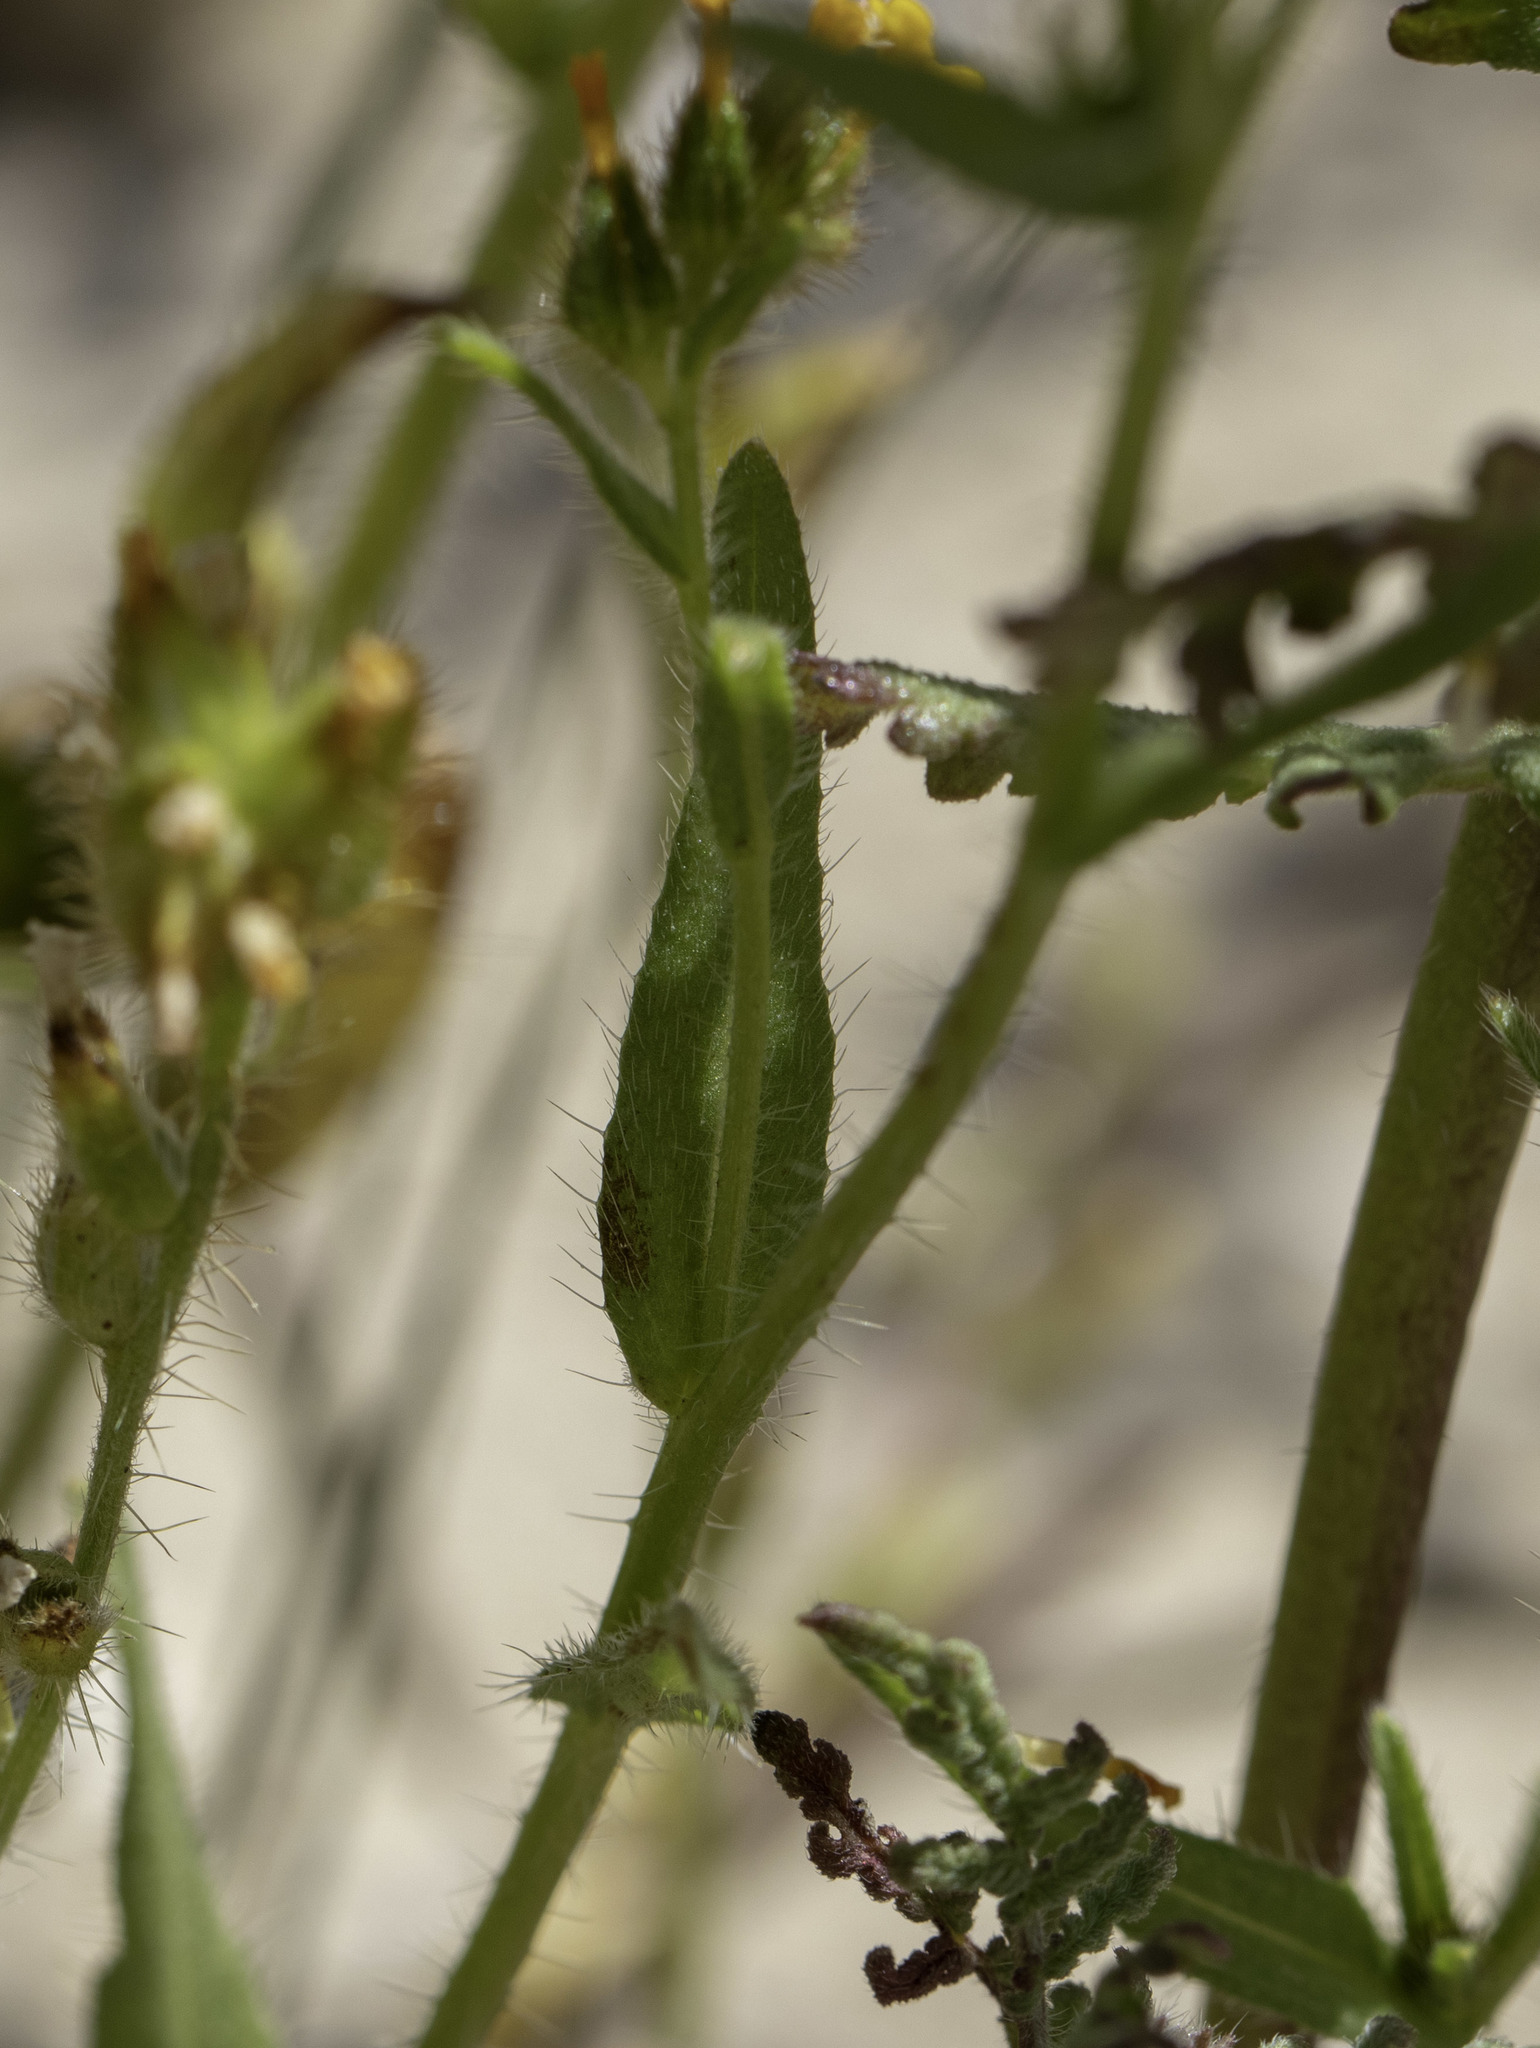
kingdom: Plantae
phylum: Tracheophyta
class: Magnoliopsida
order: Boraginales
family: Boraginaceae
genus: Amsinckia
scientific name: Amsinckia tessellata
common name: Tessellate fiddleneck
